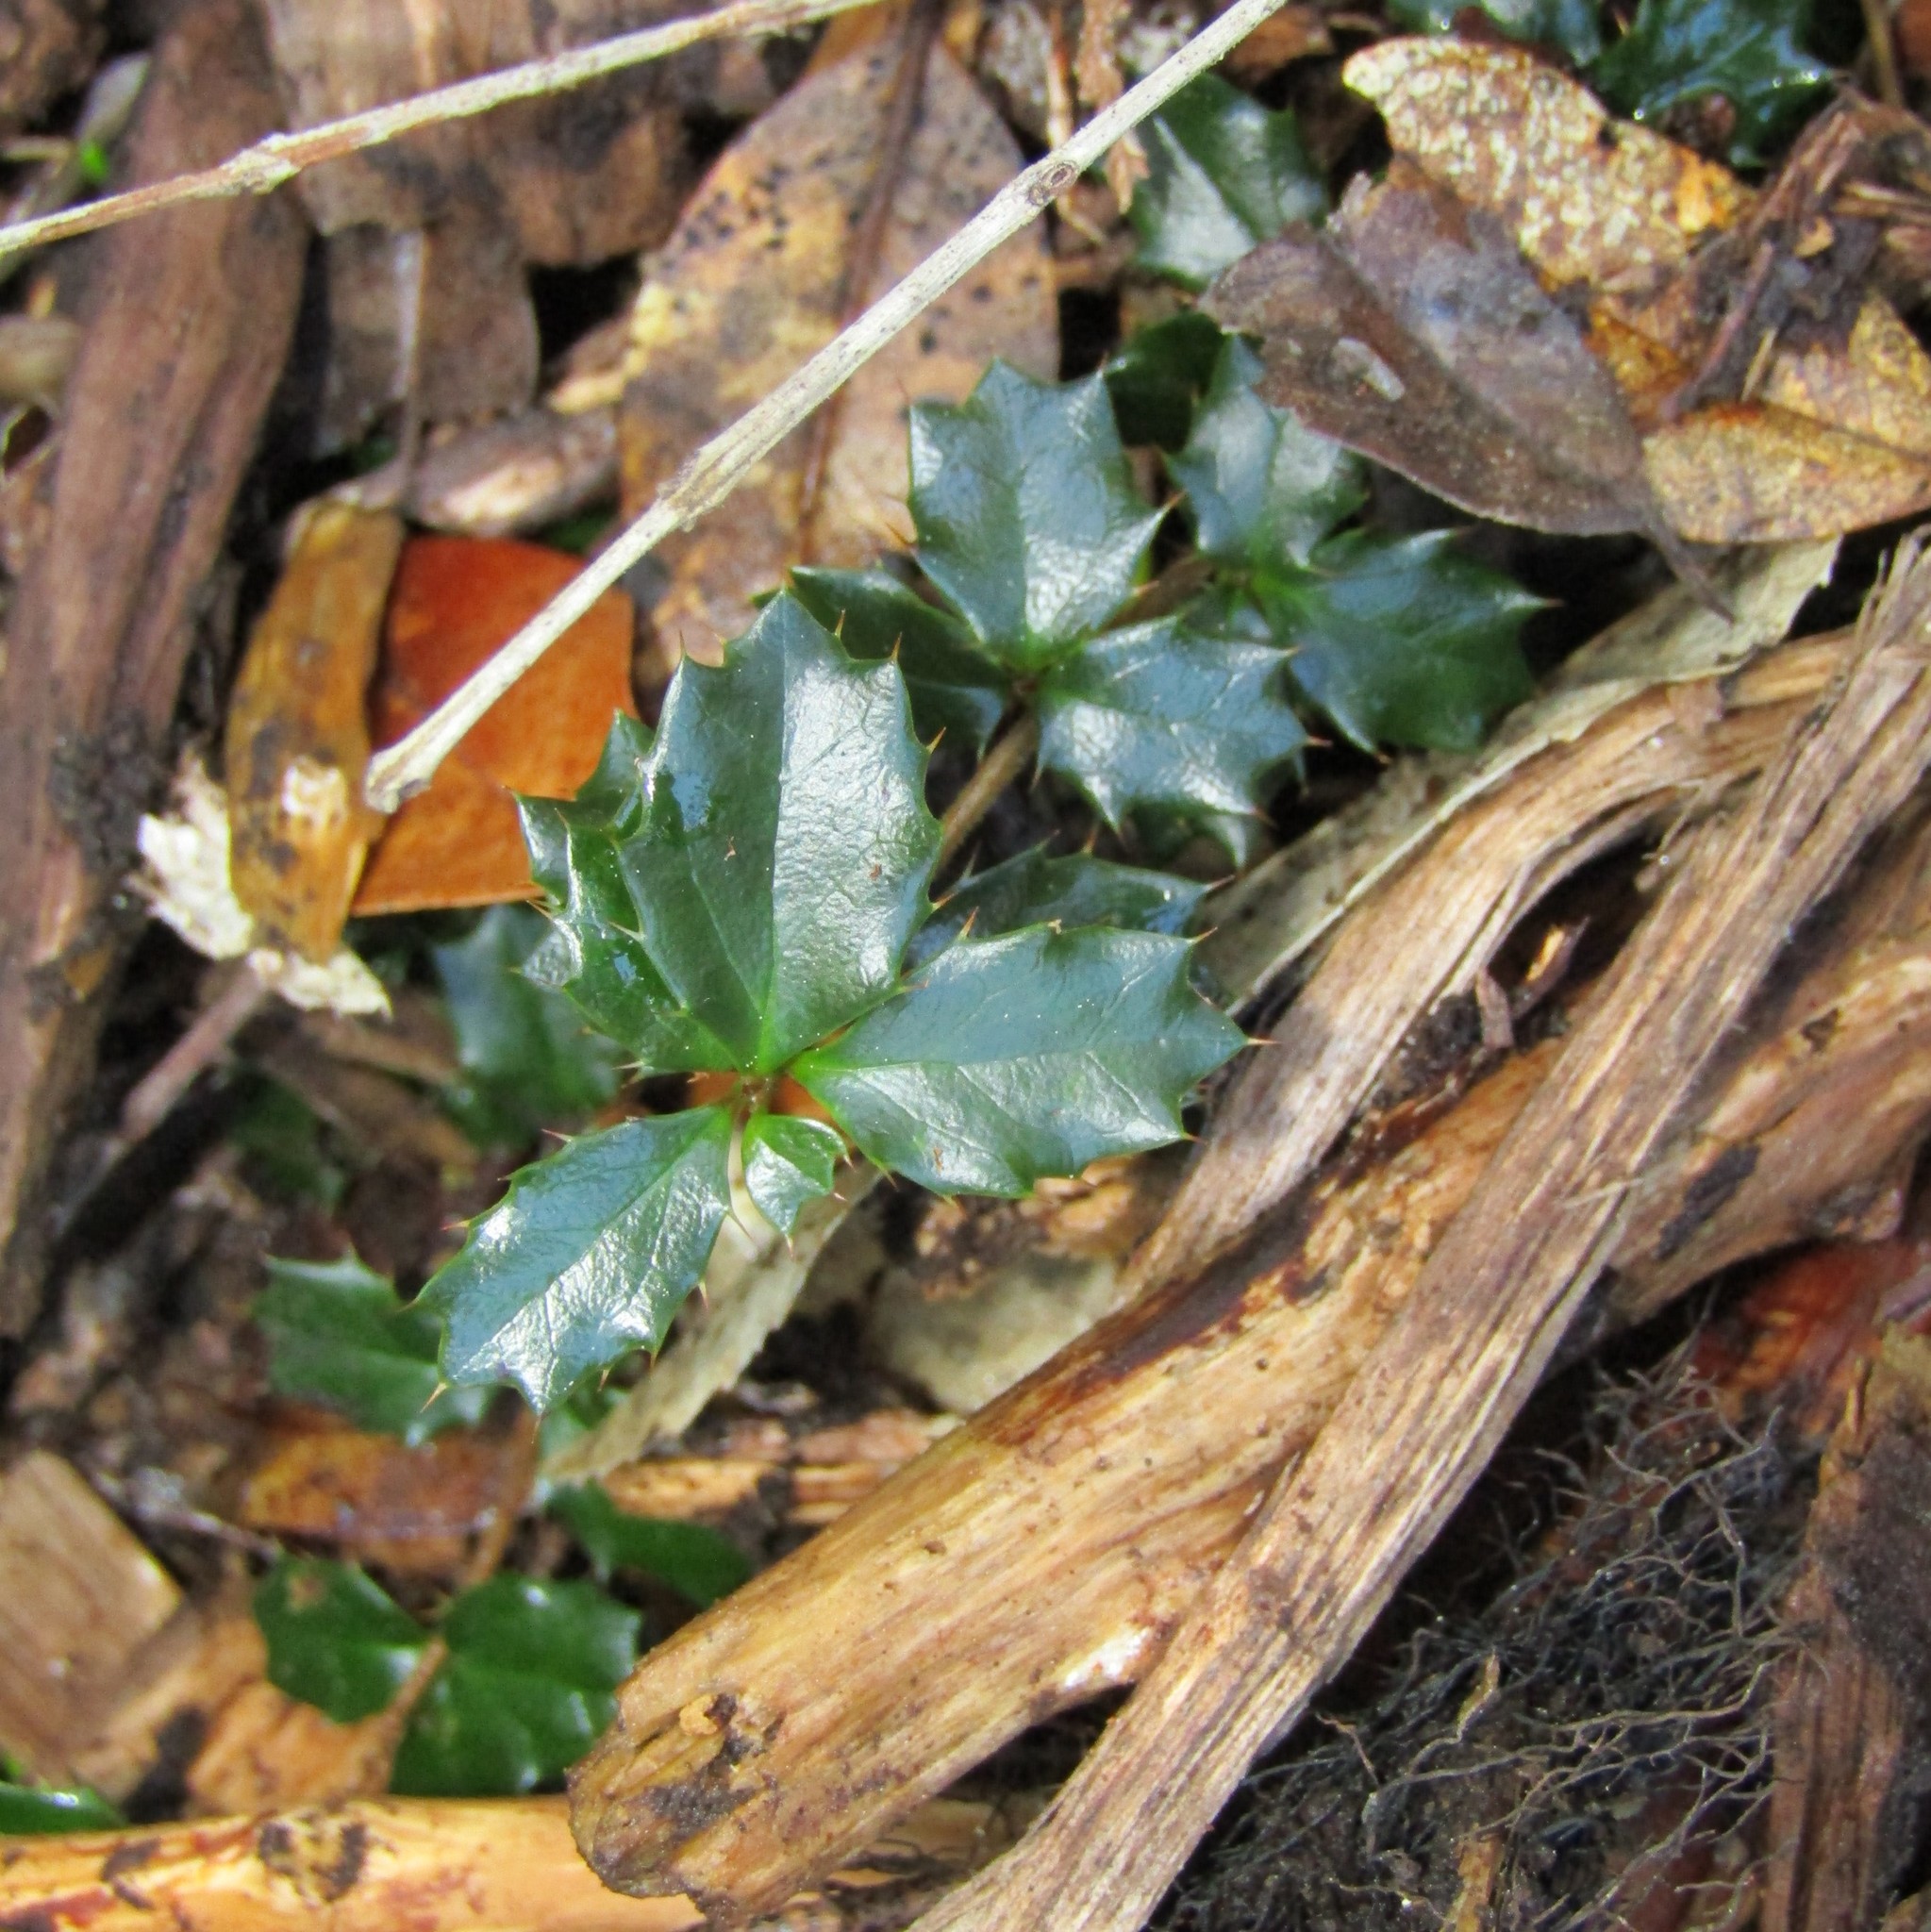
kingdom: Plantae
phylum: Tracheophyta
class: Magnoliopsida
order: Ranunculales
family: Berberidaceae
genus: Berberis
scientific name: Berberis darwinii
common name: Darwin's barberry
